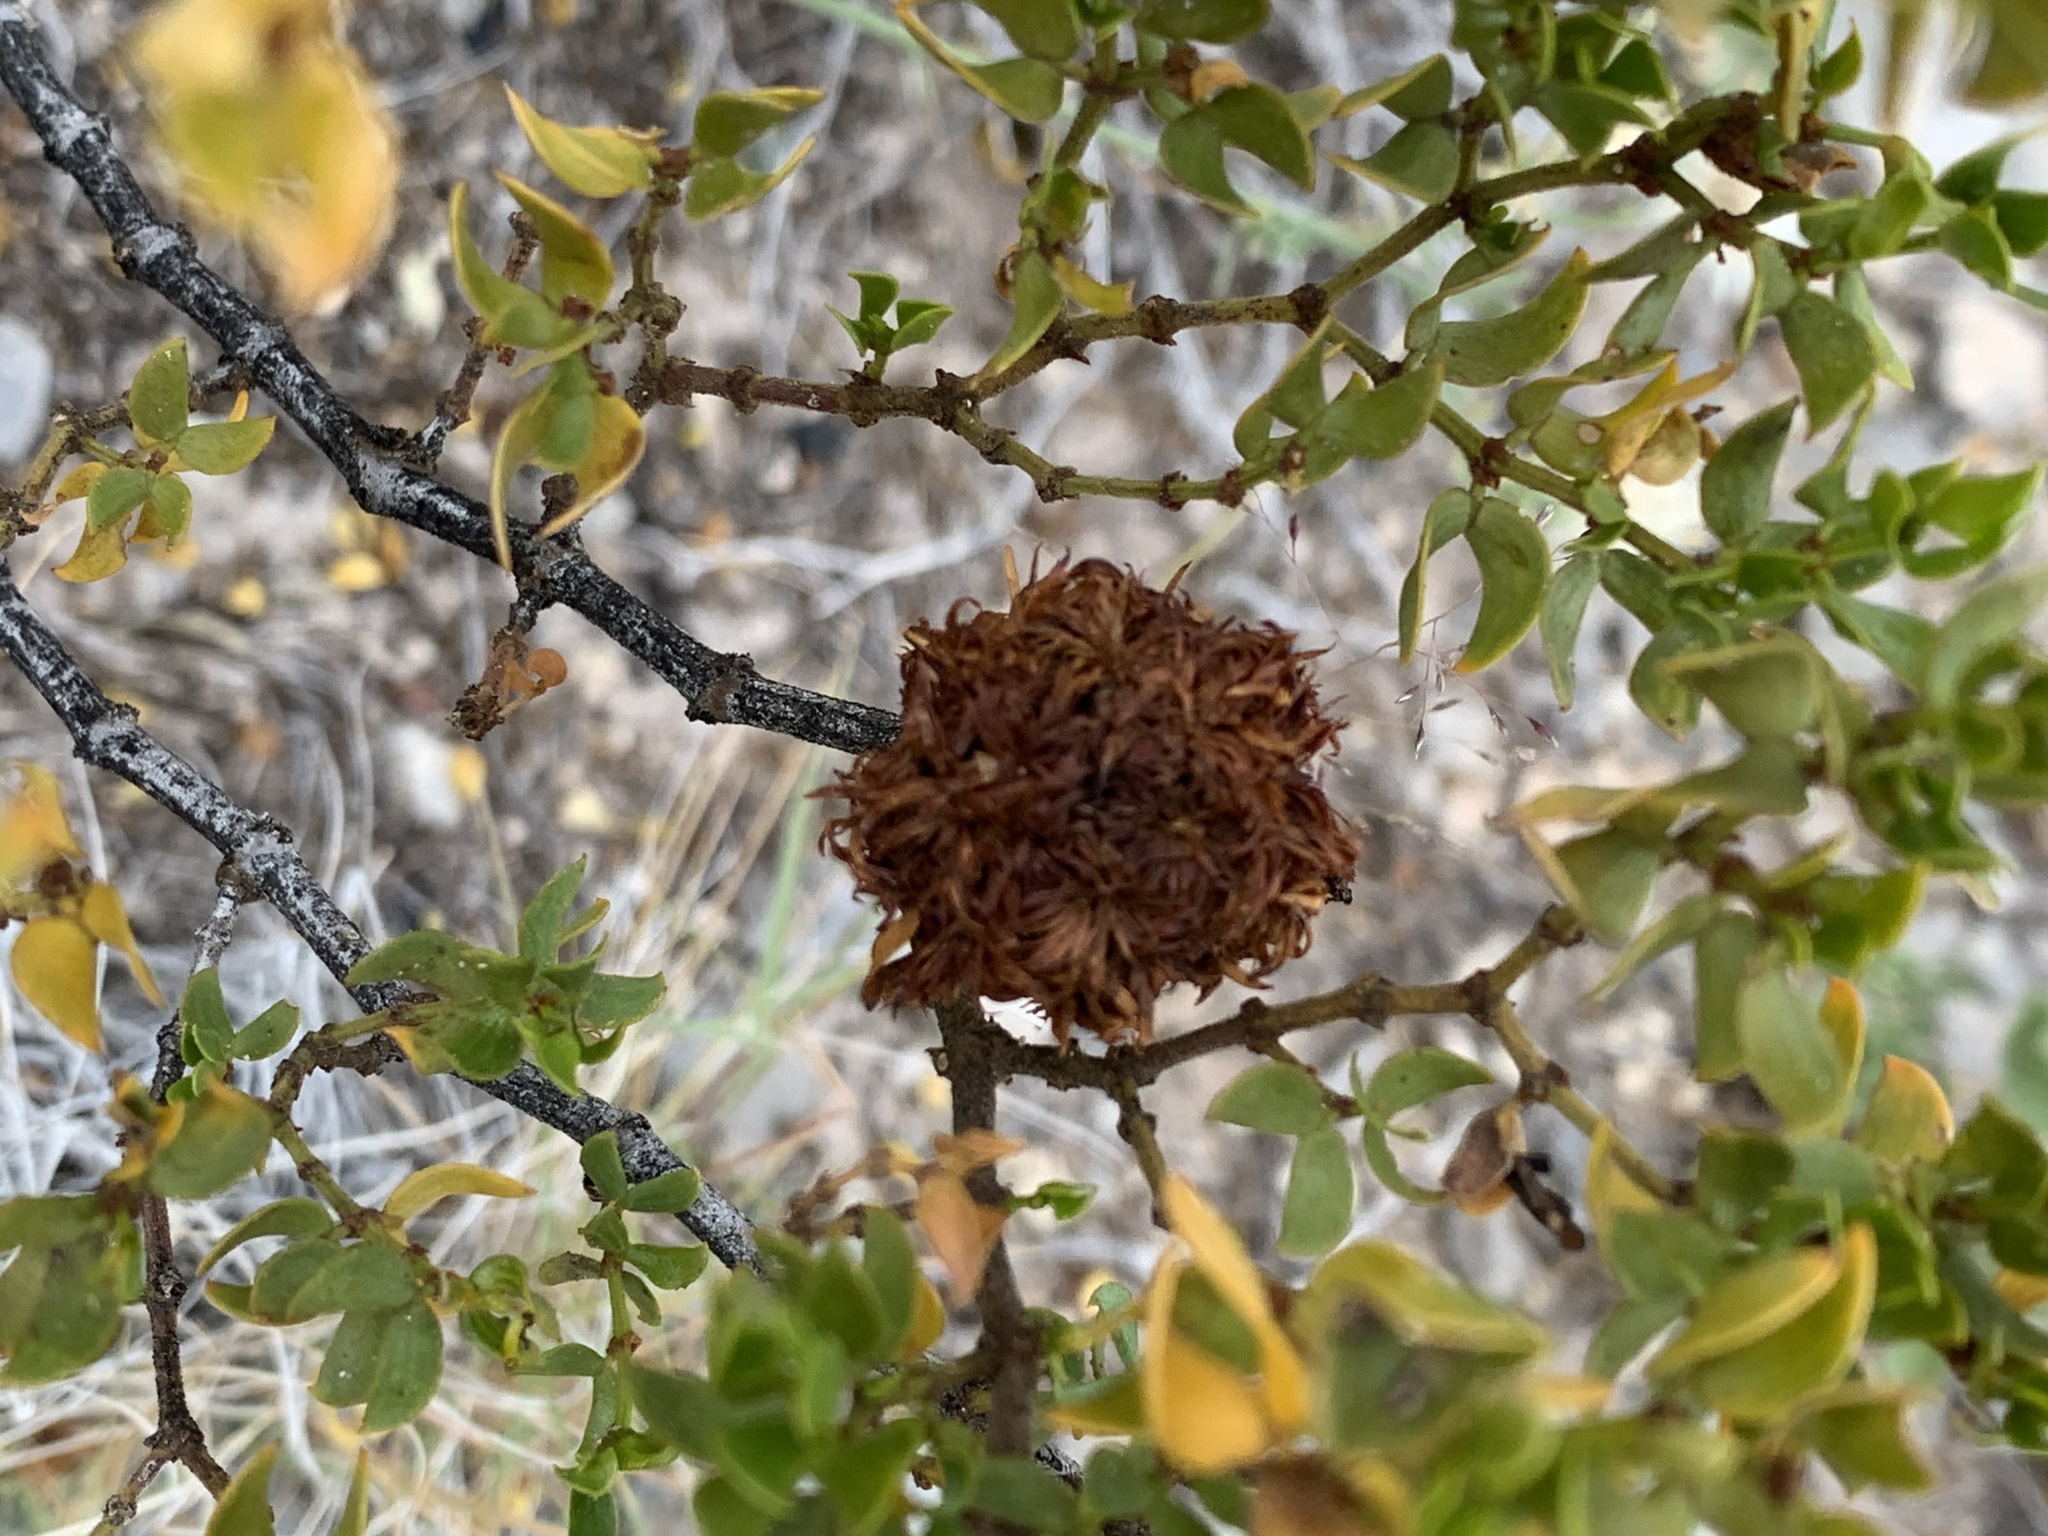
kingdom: Animalia
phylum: Arthropoda
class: Insecta
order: Diptera
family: Cecidomyiidae
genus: Asphondylia
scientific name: Asphondylia auripila
